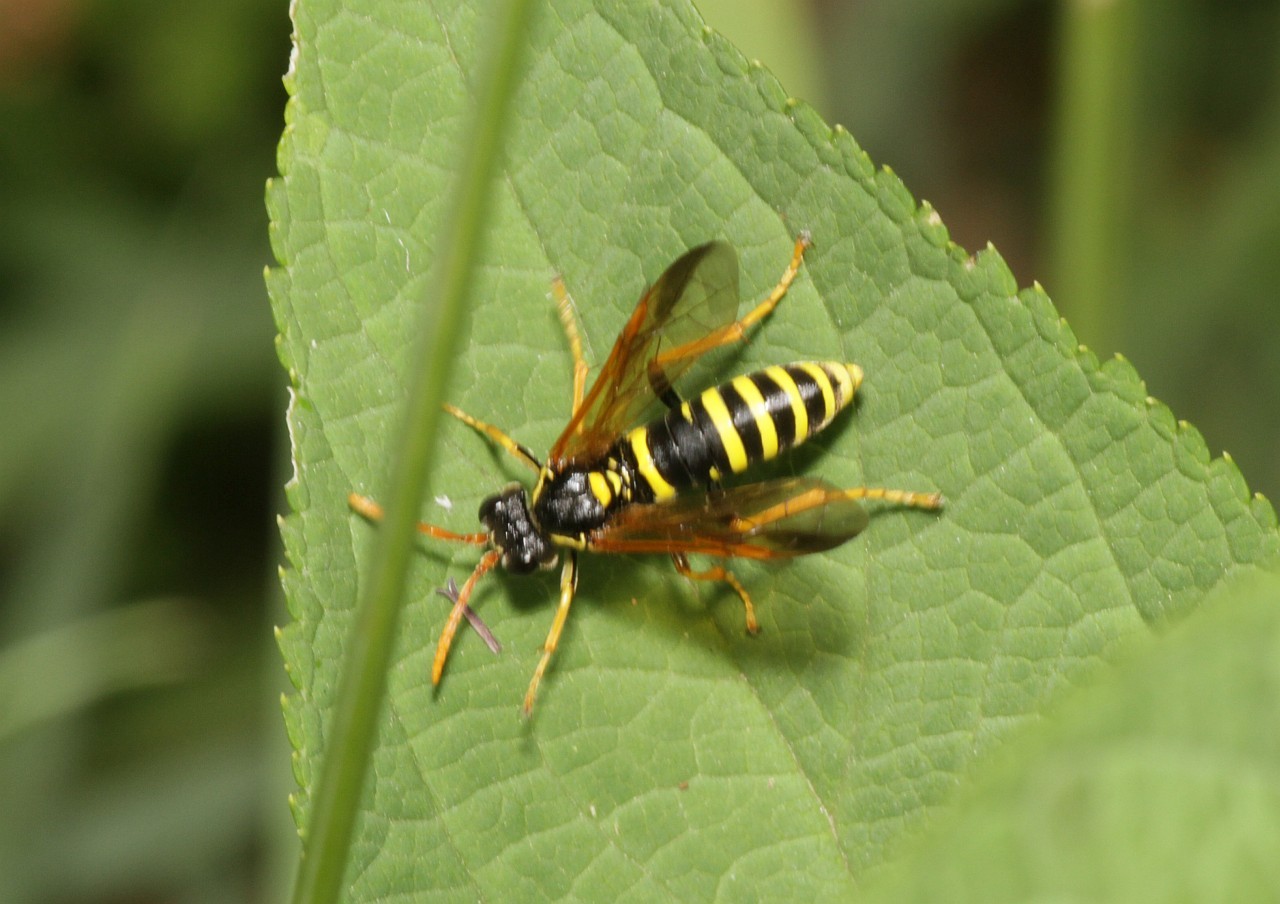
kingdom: Animalia
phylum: Arthropoda
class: Insecta
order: Hymenoptera
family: Tenthredinidae
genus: Tenthredo
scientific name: Tenthredo scrophulariae
